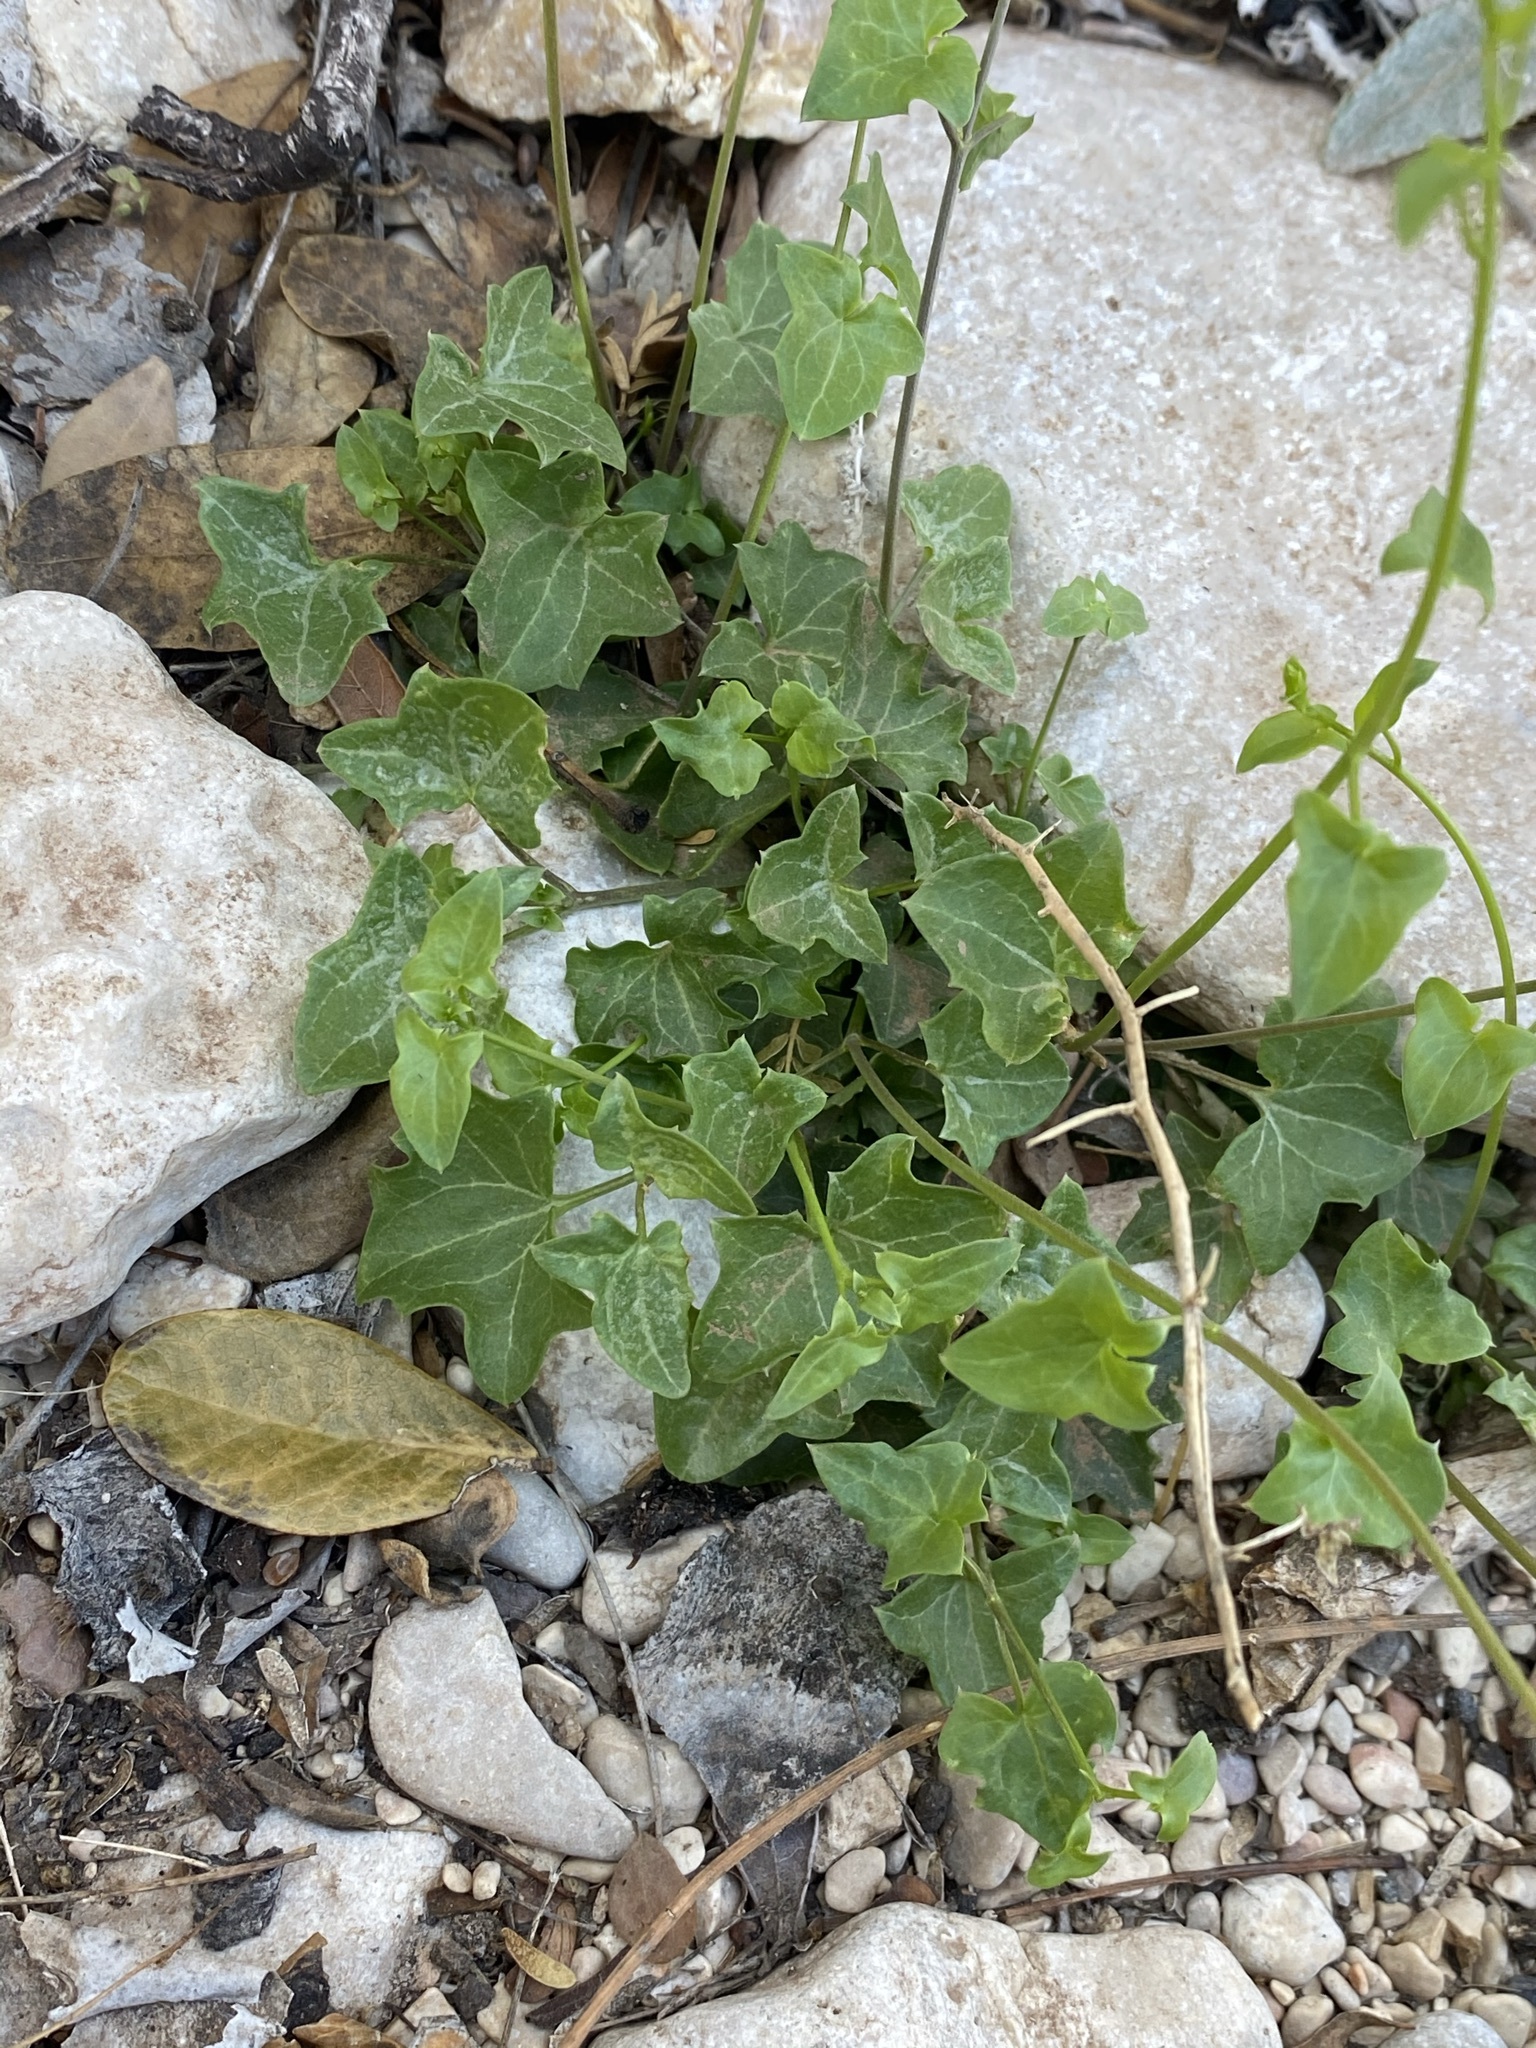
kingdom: Plantae
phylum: Tracheophyta
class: Magnoliopsida
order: Lamiales
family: Plantaginaceae
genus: Maurandella
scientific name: Maurandella antirrhiniflora
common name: Violet twining-snapdragon
